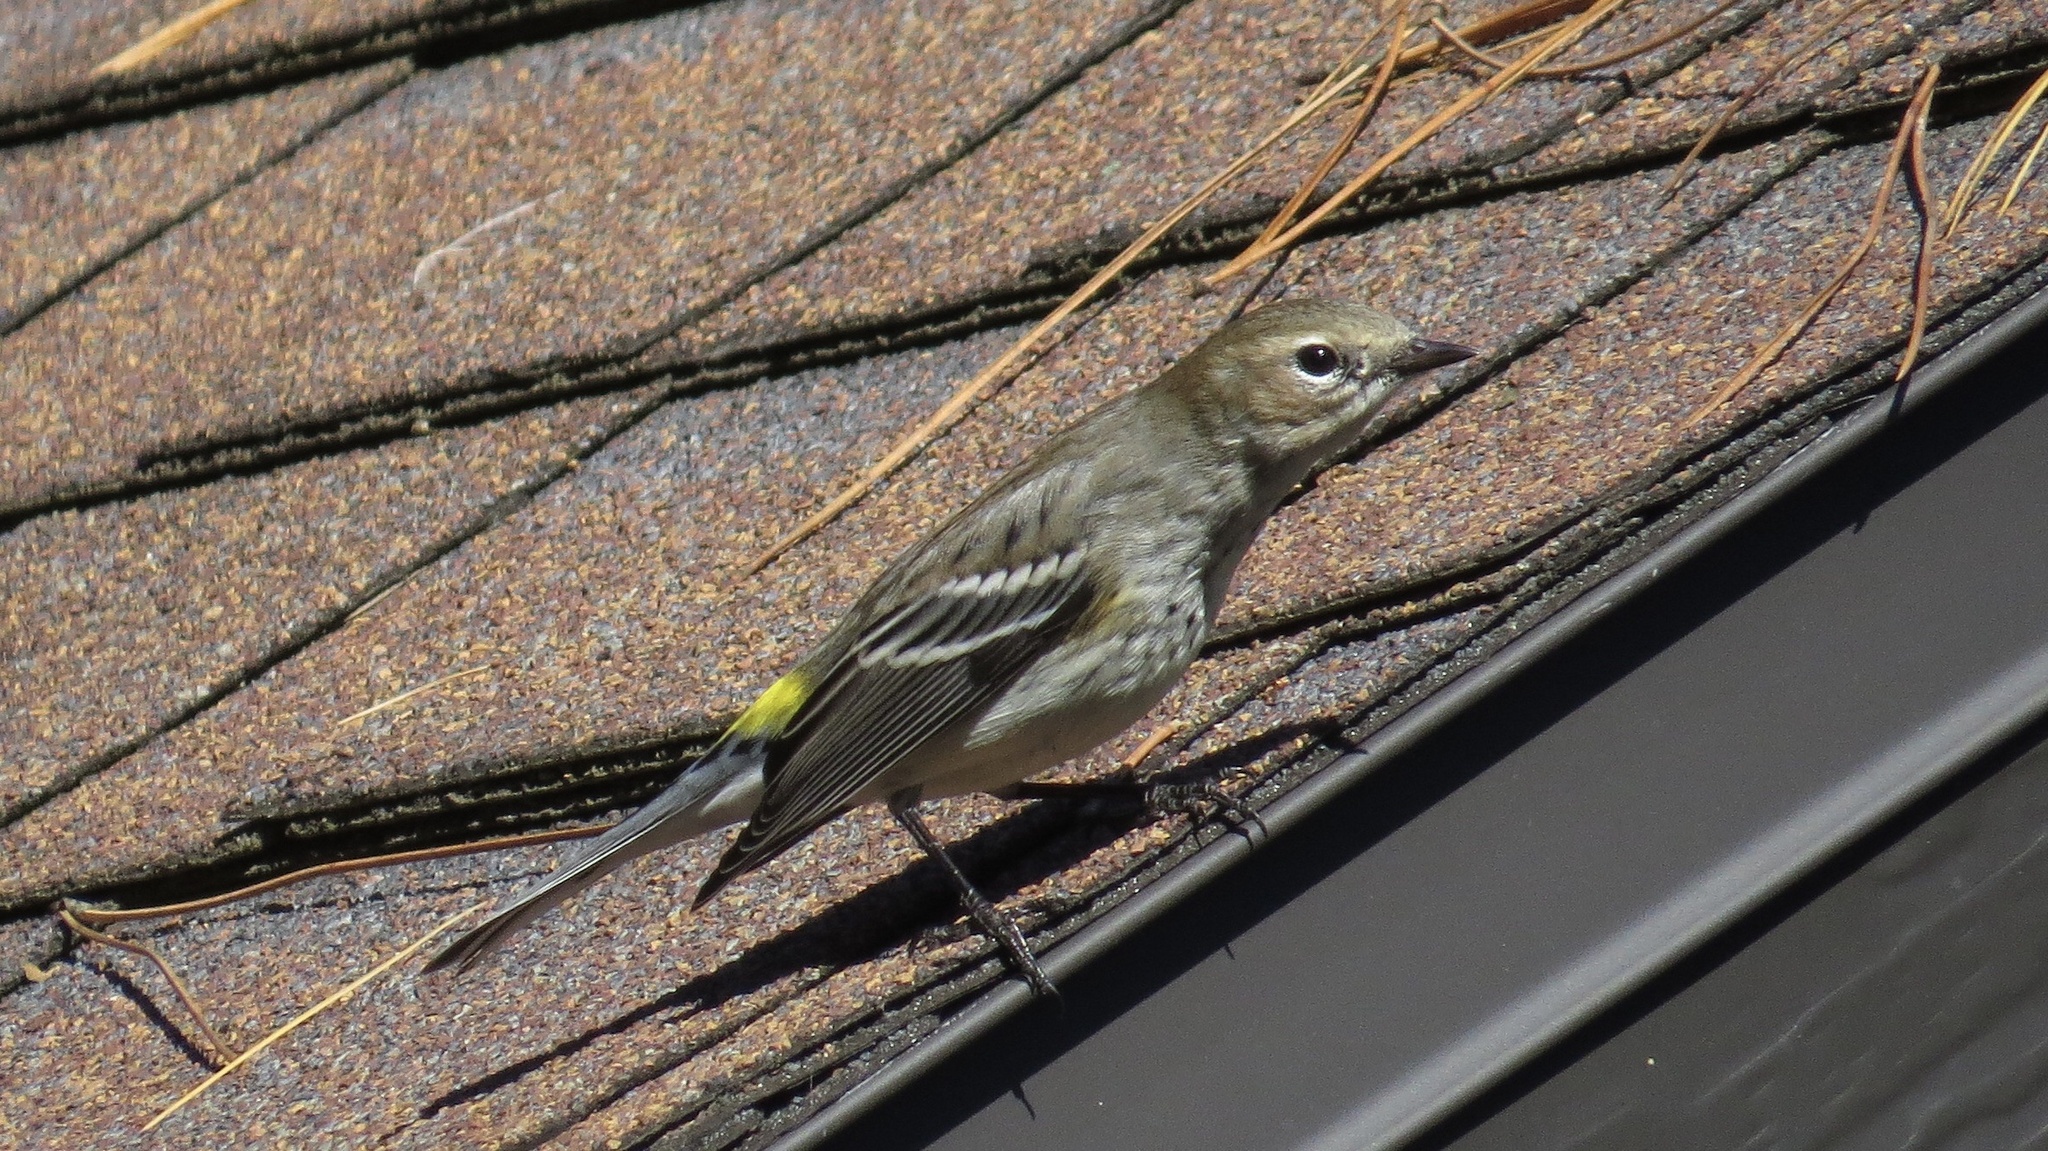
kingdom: Animalia
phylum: Chordata
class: Aves
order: Passeriformes
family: Parulidae
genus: Setophaga
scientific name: Setophaga coronata
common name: Myrtle warbler
